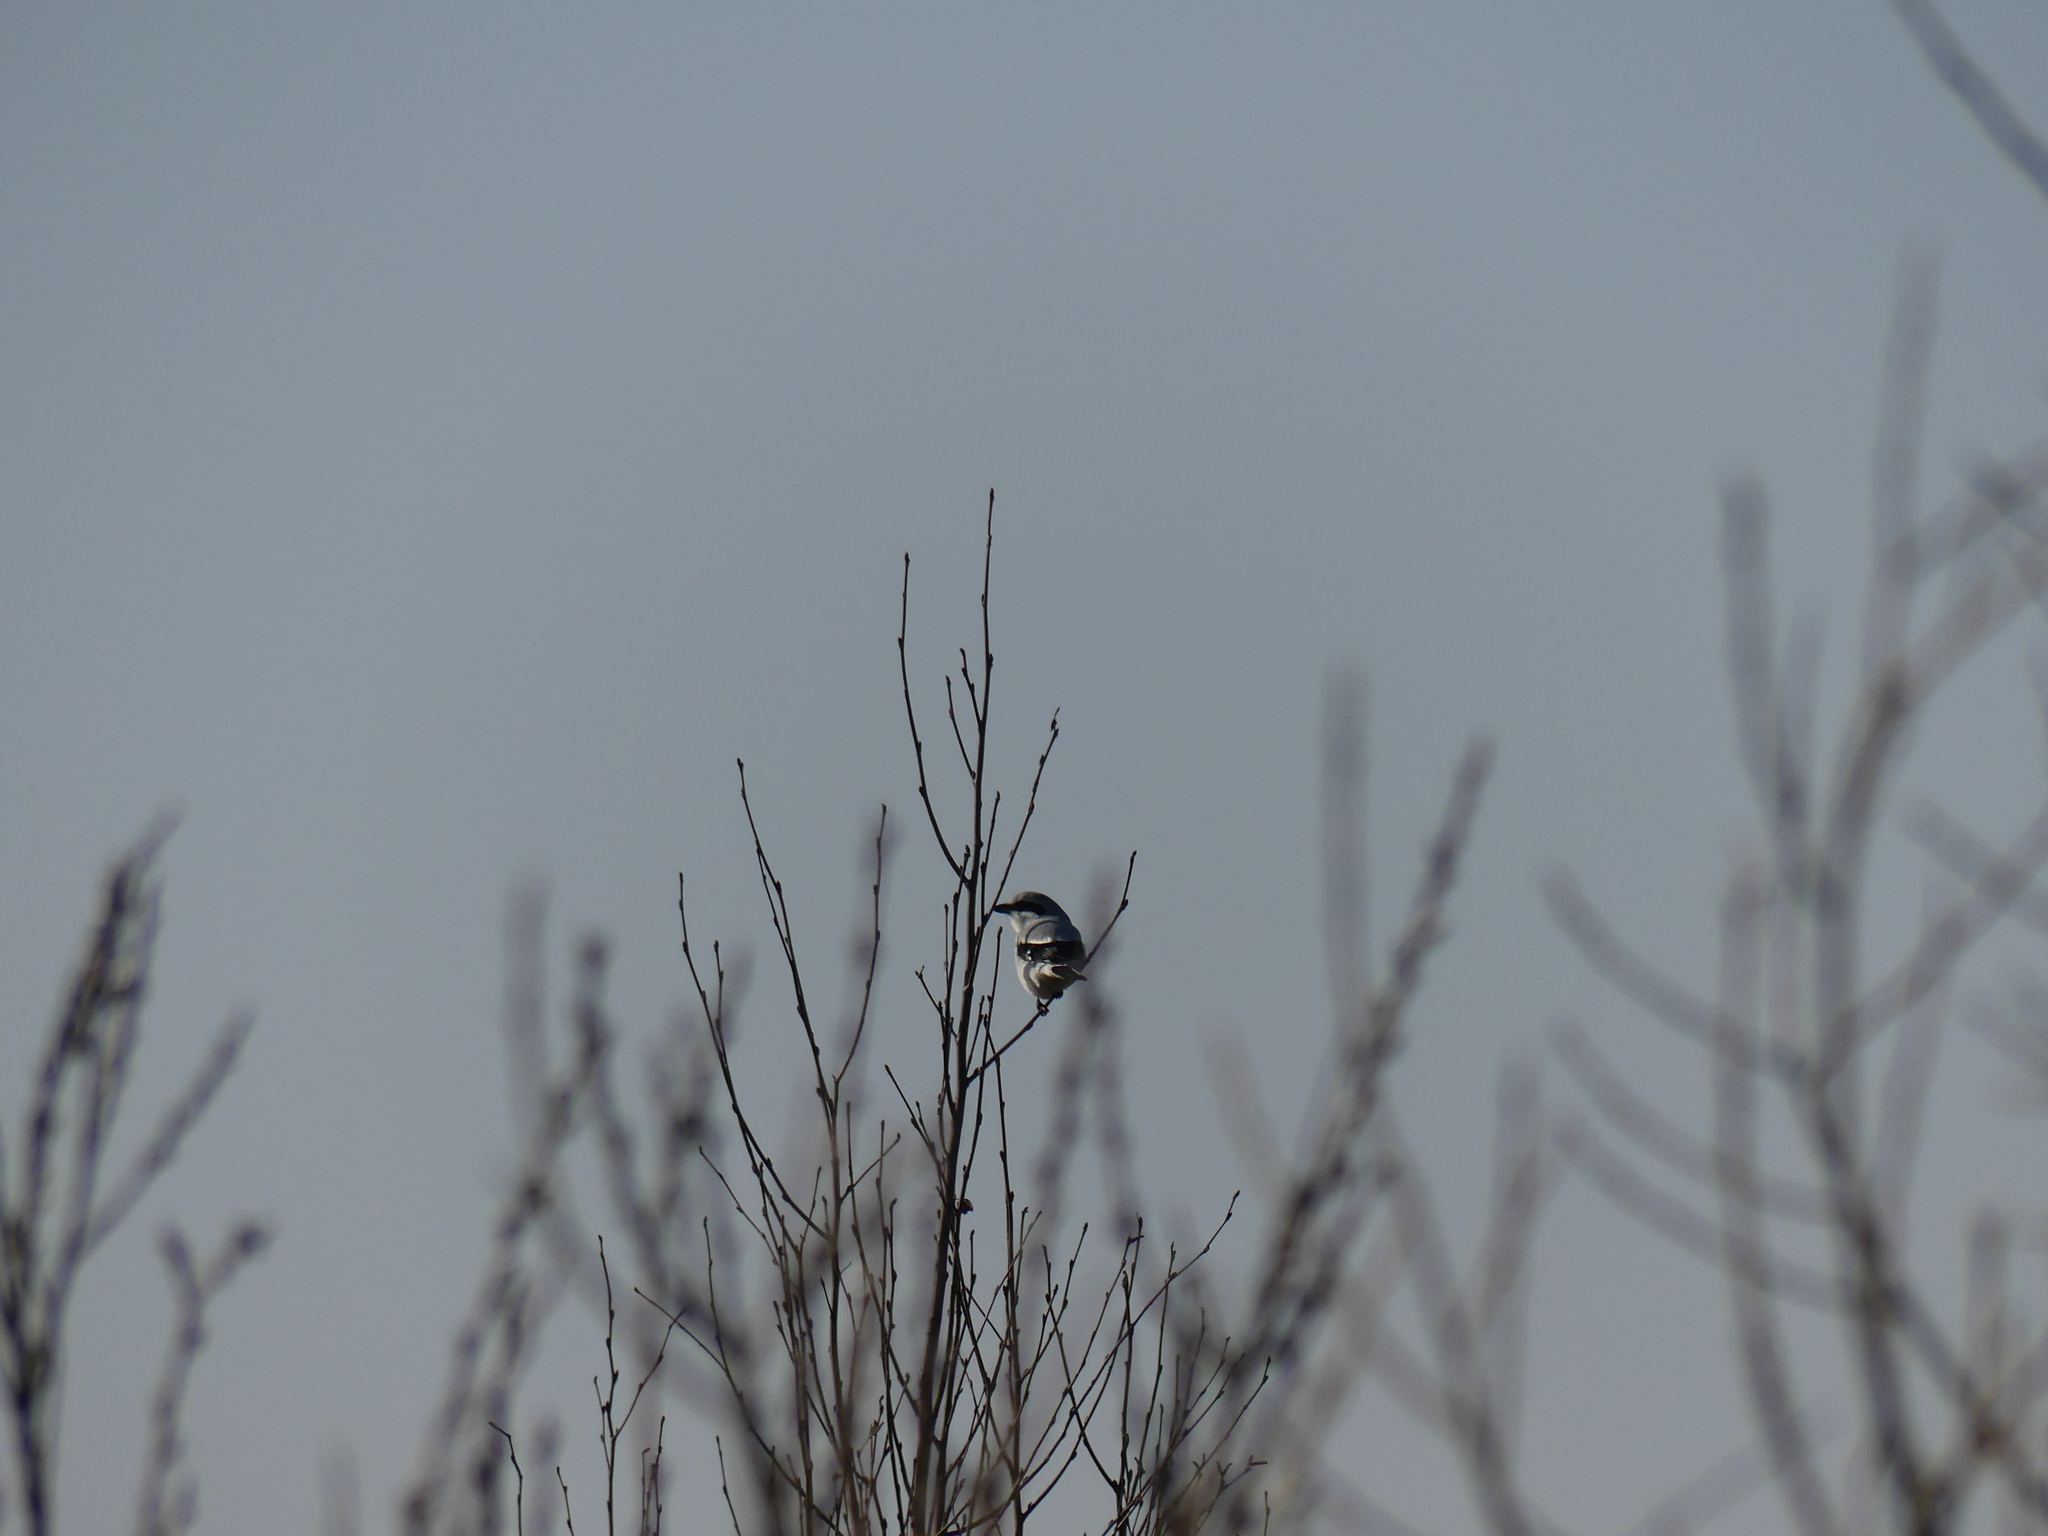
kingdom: Animalia
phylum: Chordata
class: Aves
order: Passeriformes
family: Laniidae
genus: Lanius
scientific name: Lanius excubitor
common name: Great grey shrike
